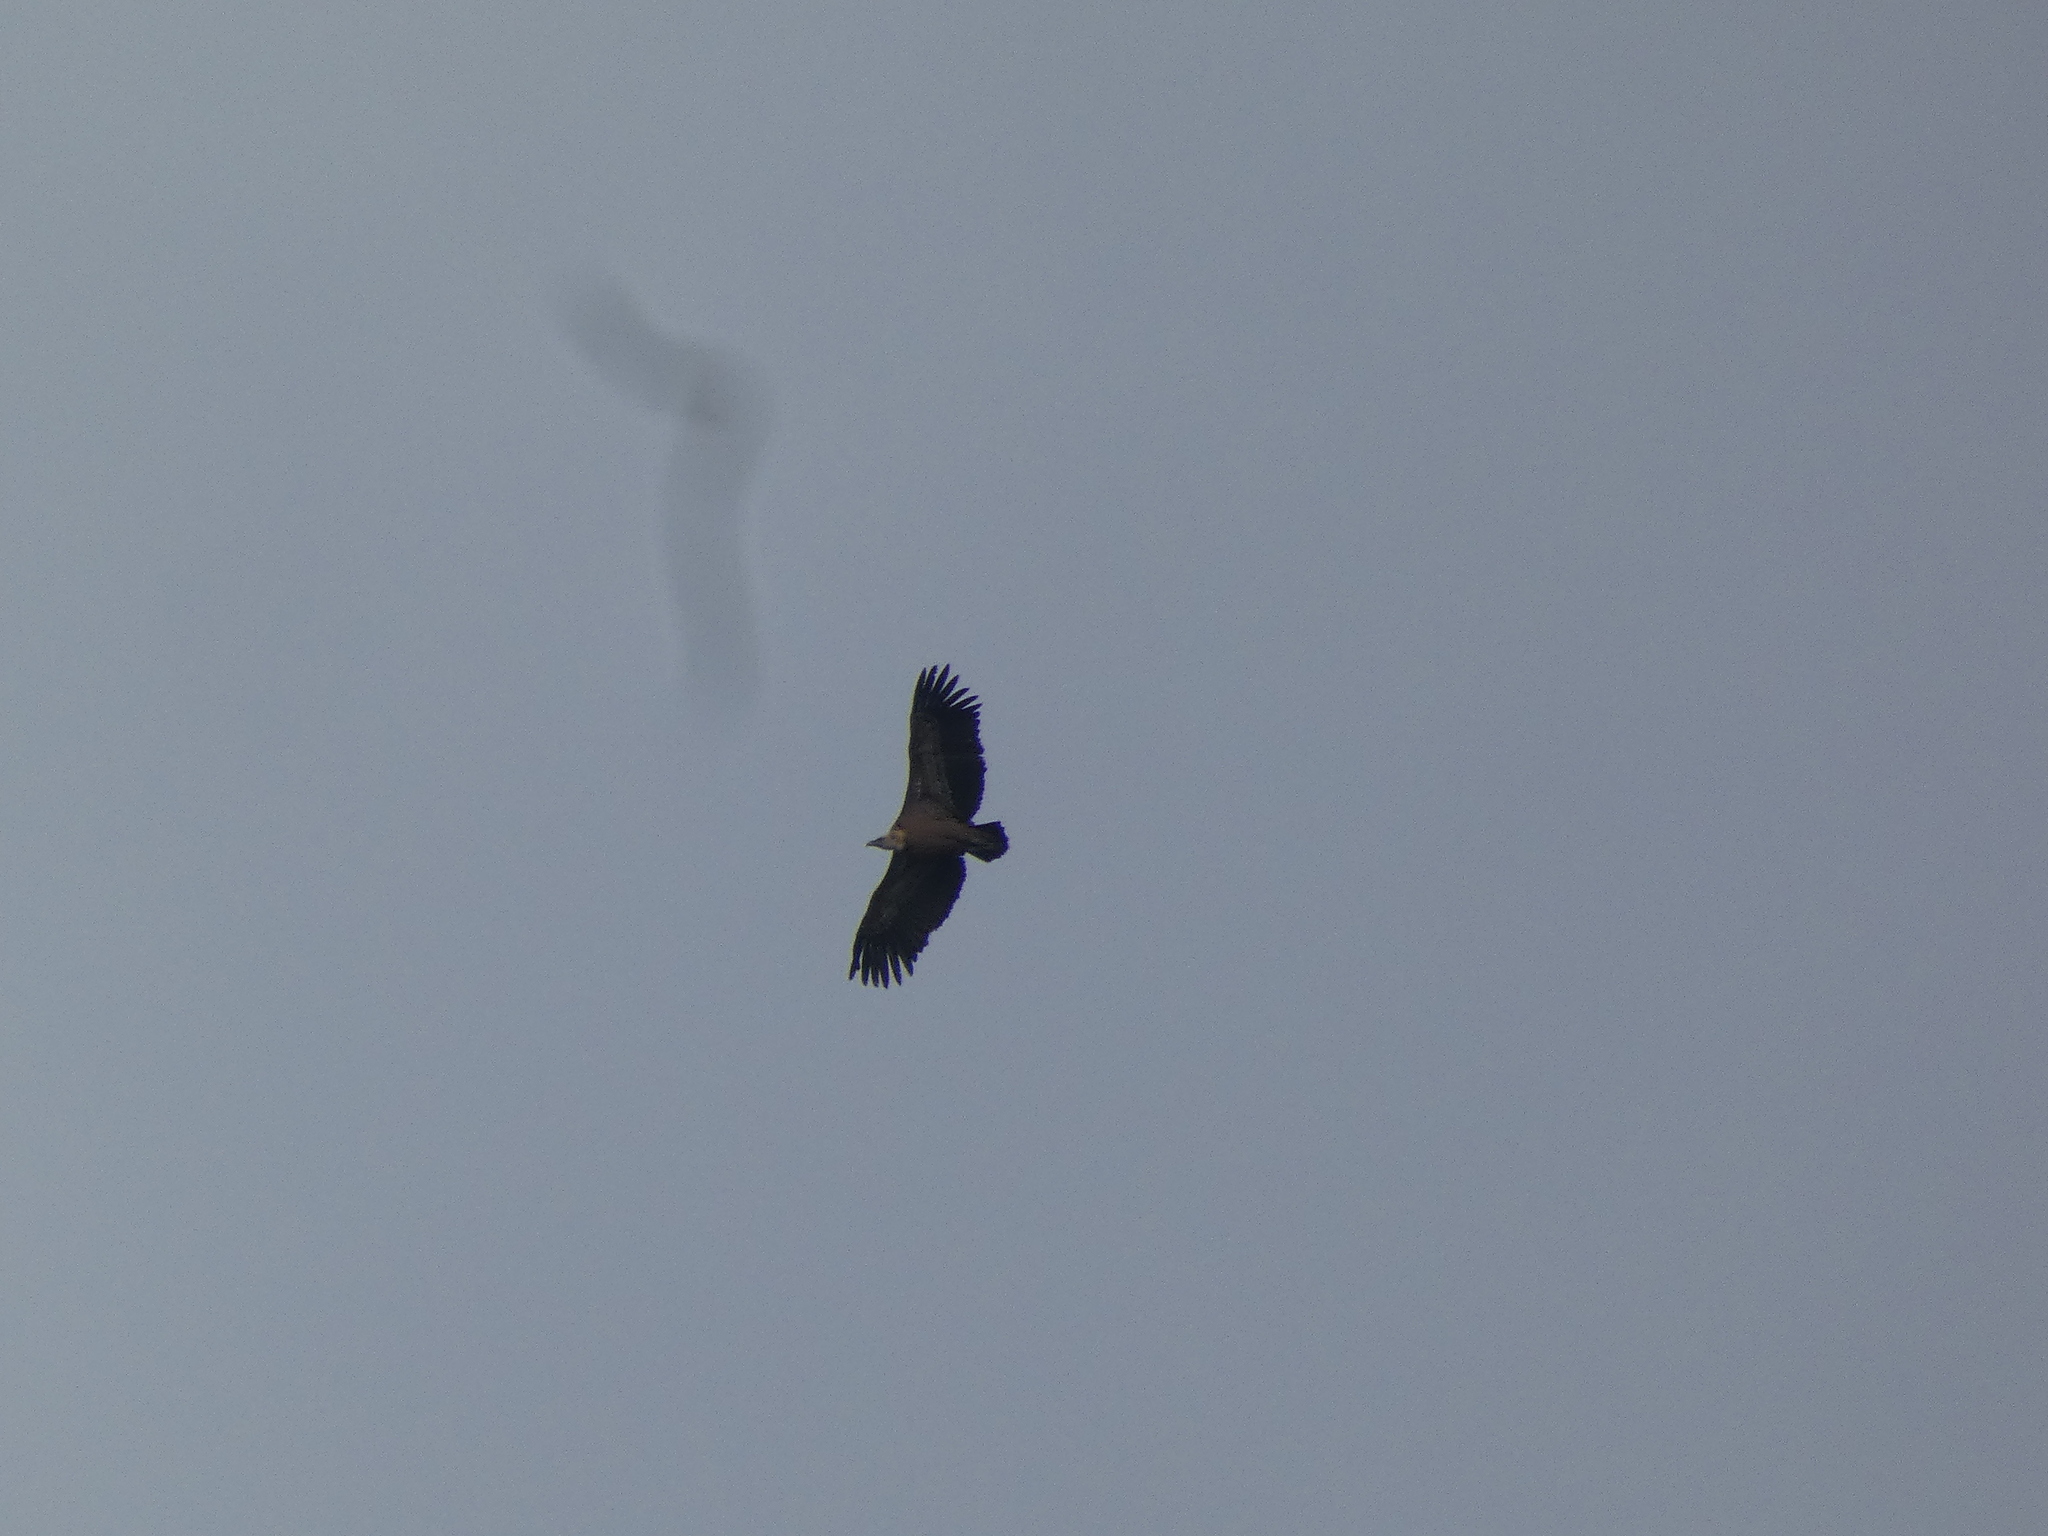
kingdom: Animalia
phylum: Chordata
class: Aves
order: Accipitriformes
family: Accipitridae
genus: Gyps
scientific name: Gyps fulvus
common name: Griffon vulture
